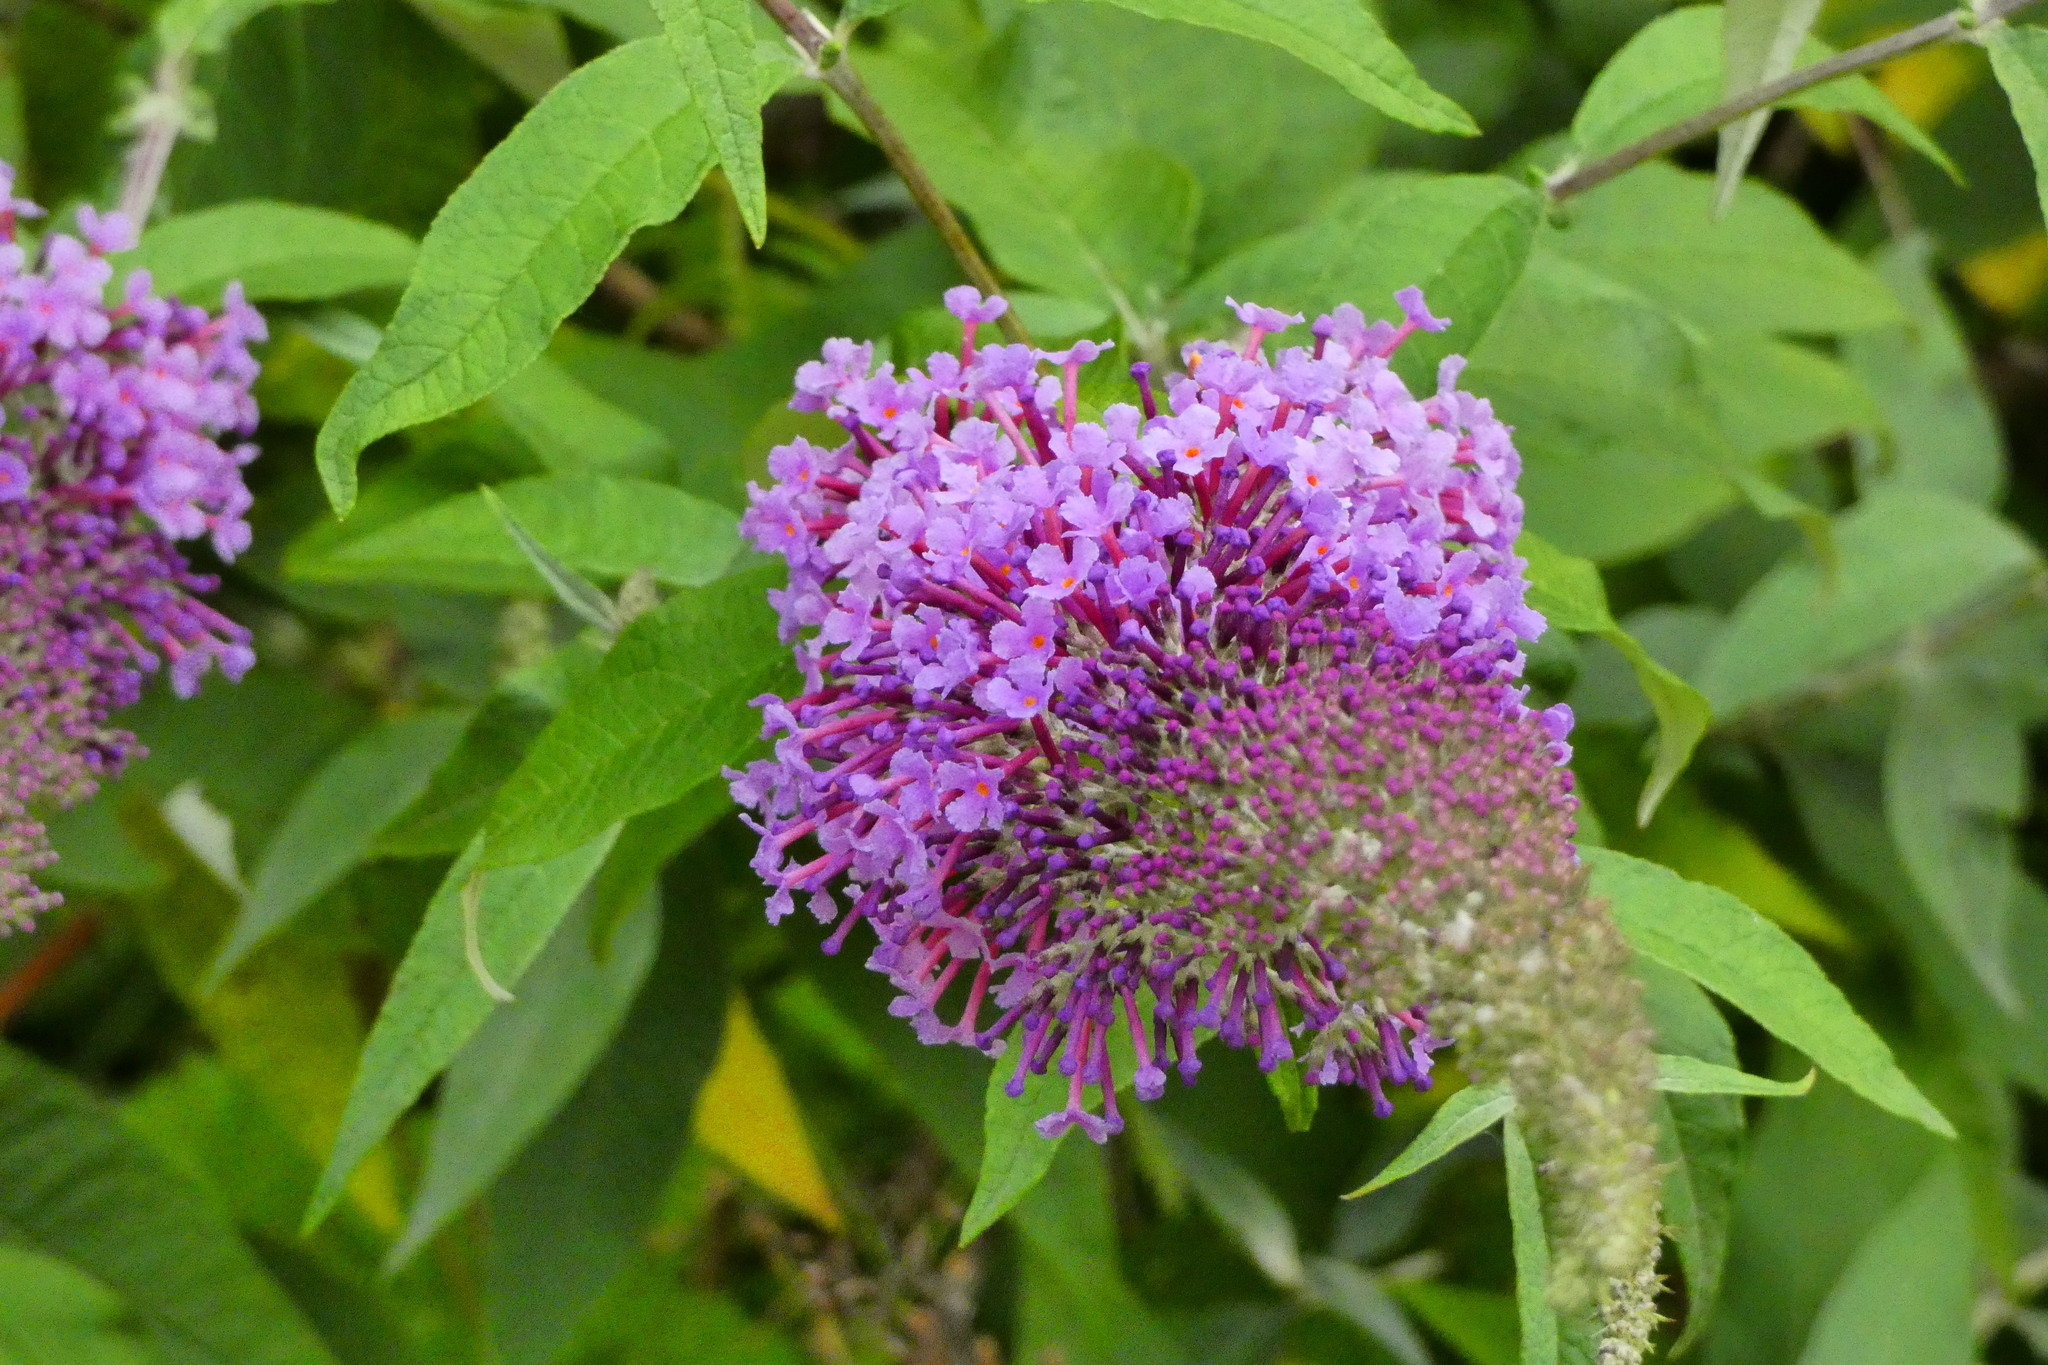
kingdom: Plantae
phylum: Tracheophyta
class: Magnoliopsida
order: Lamiales
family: Scrophulariaceae
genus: Buddleja
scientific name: Buddleja davidii
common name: Butterfly-bush
